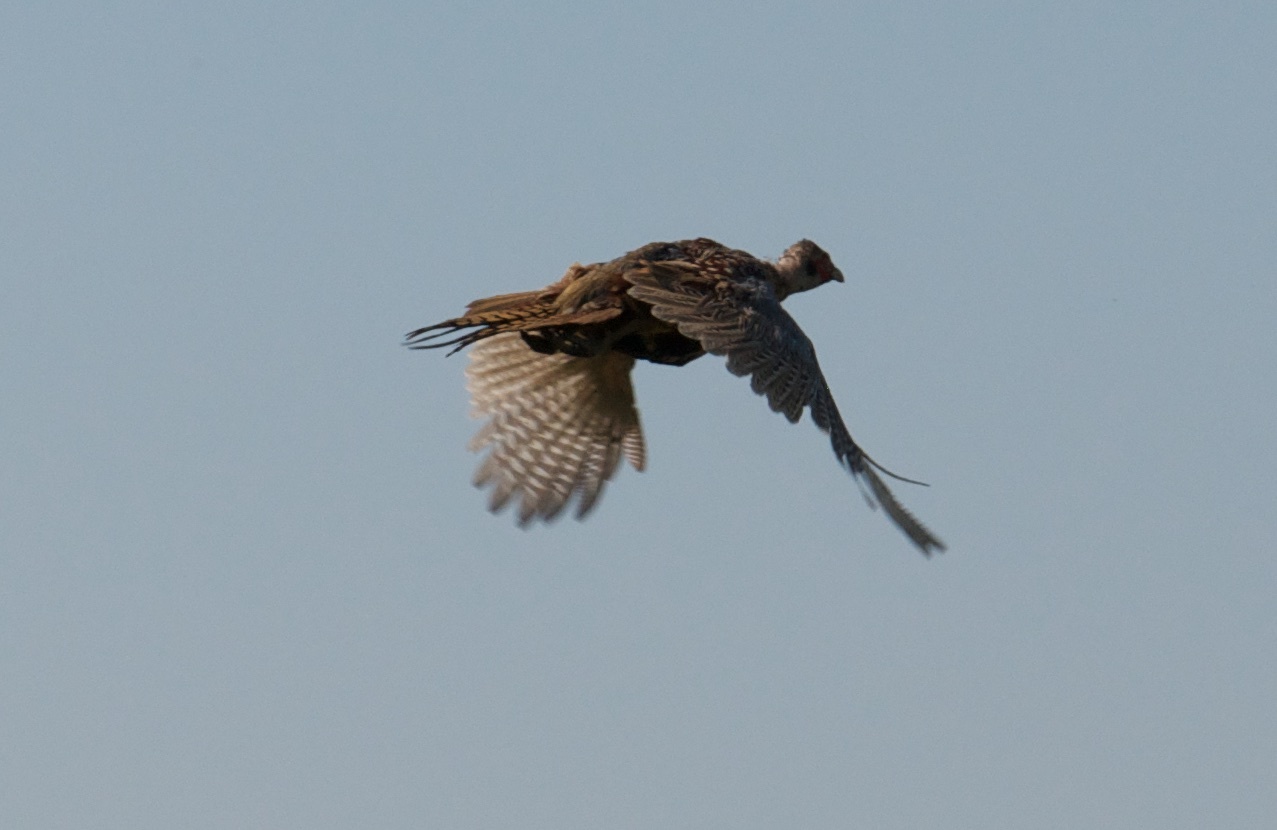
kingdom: Animalia
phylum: Chordata
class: Aves
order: Galliformes
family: Phasianidae
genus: Phasianus
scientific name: Phasianus colchicus
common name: Common pheasant
